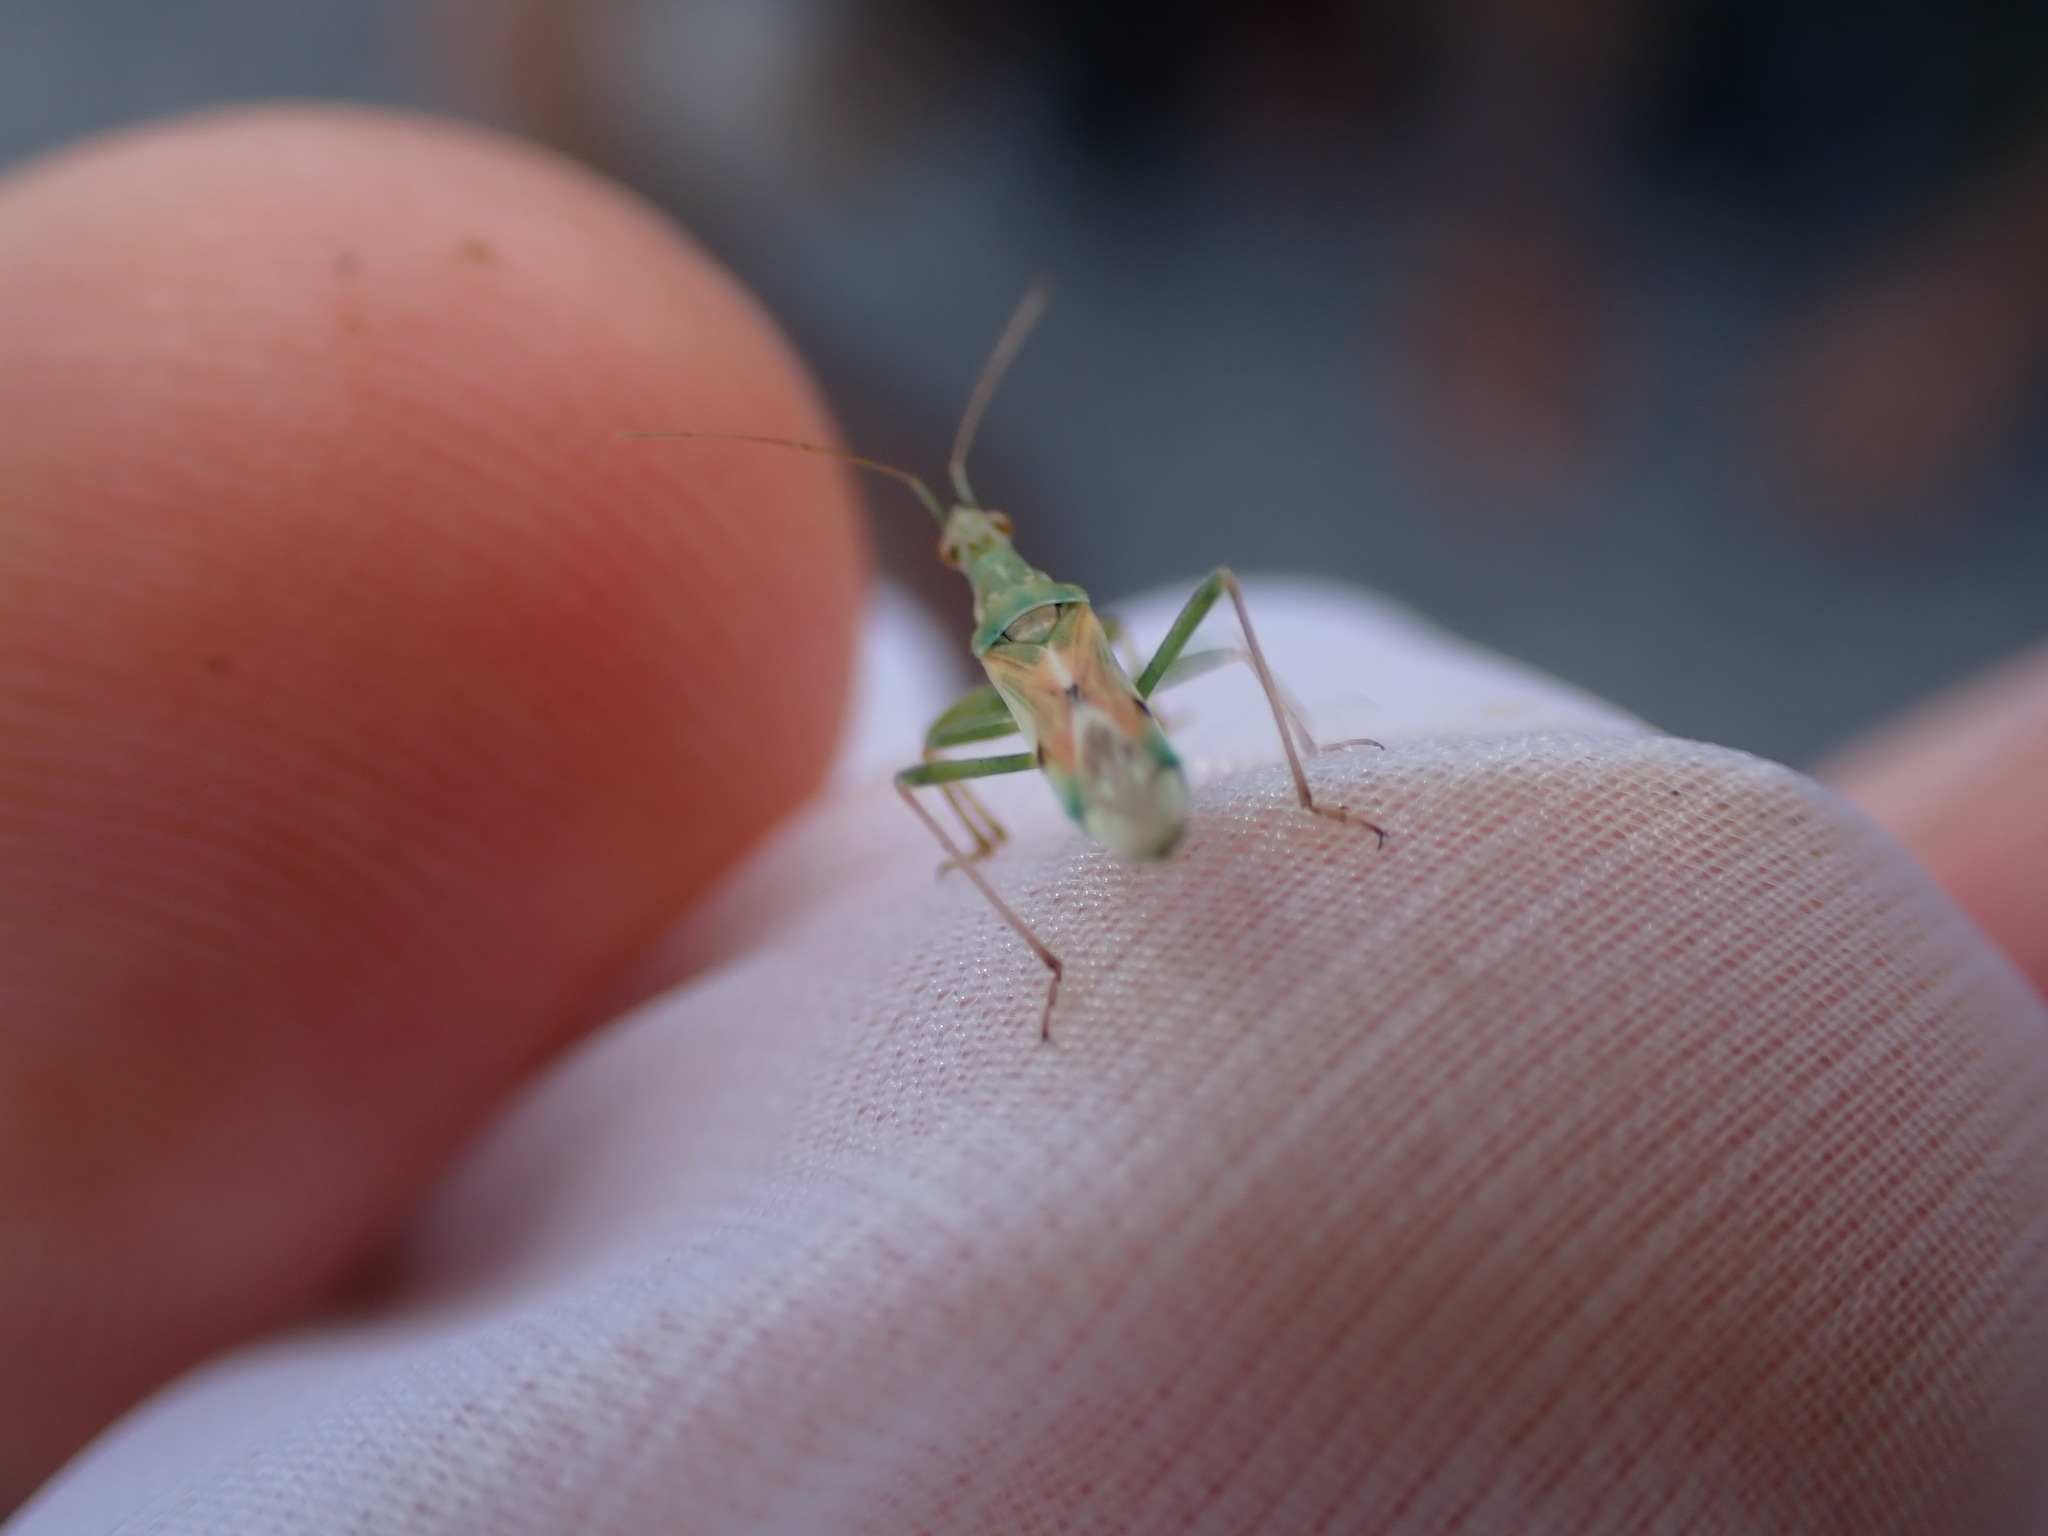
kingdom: Animalia
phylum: Arthropoda
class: Insecta
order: Hemiptera
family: Nabidae
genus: Nabis
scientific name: Nabis viridulus
